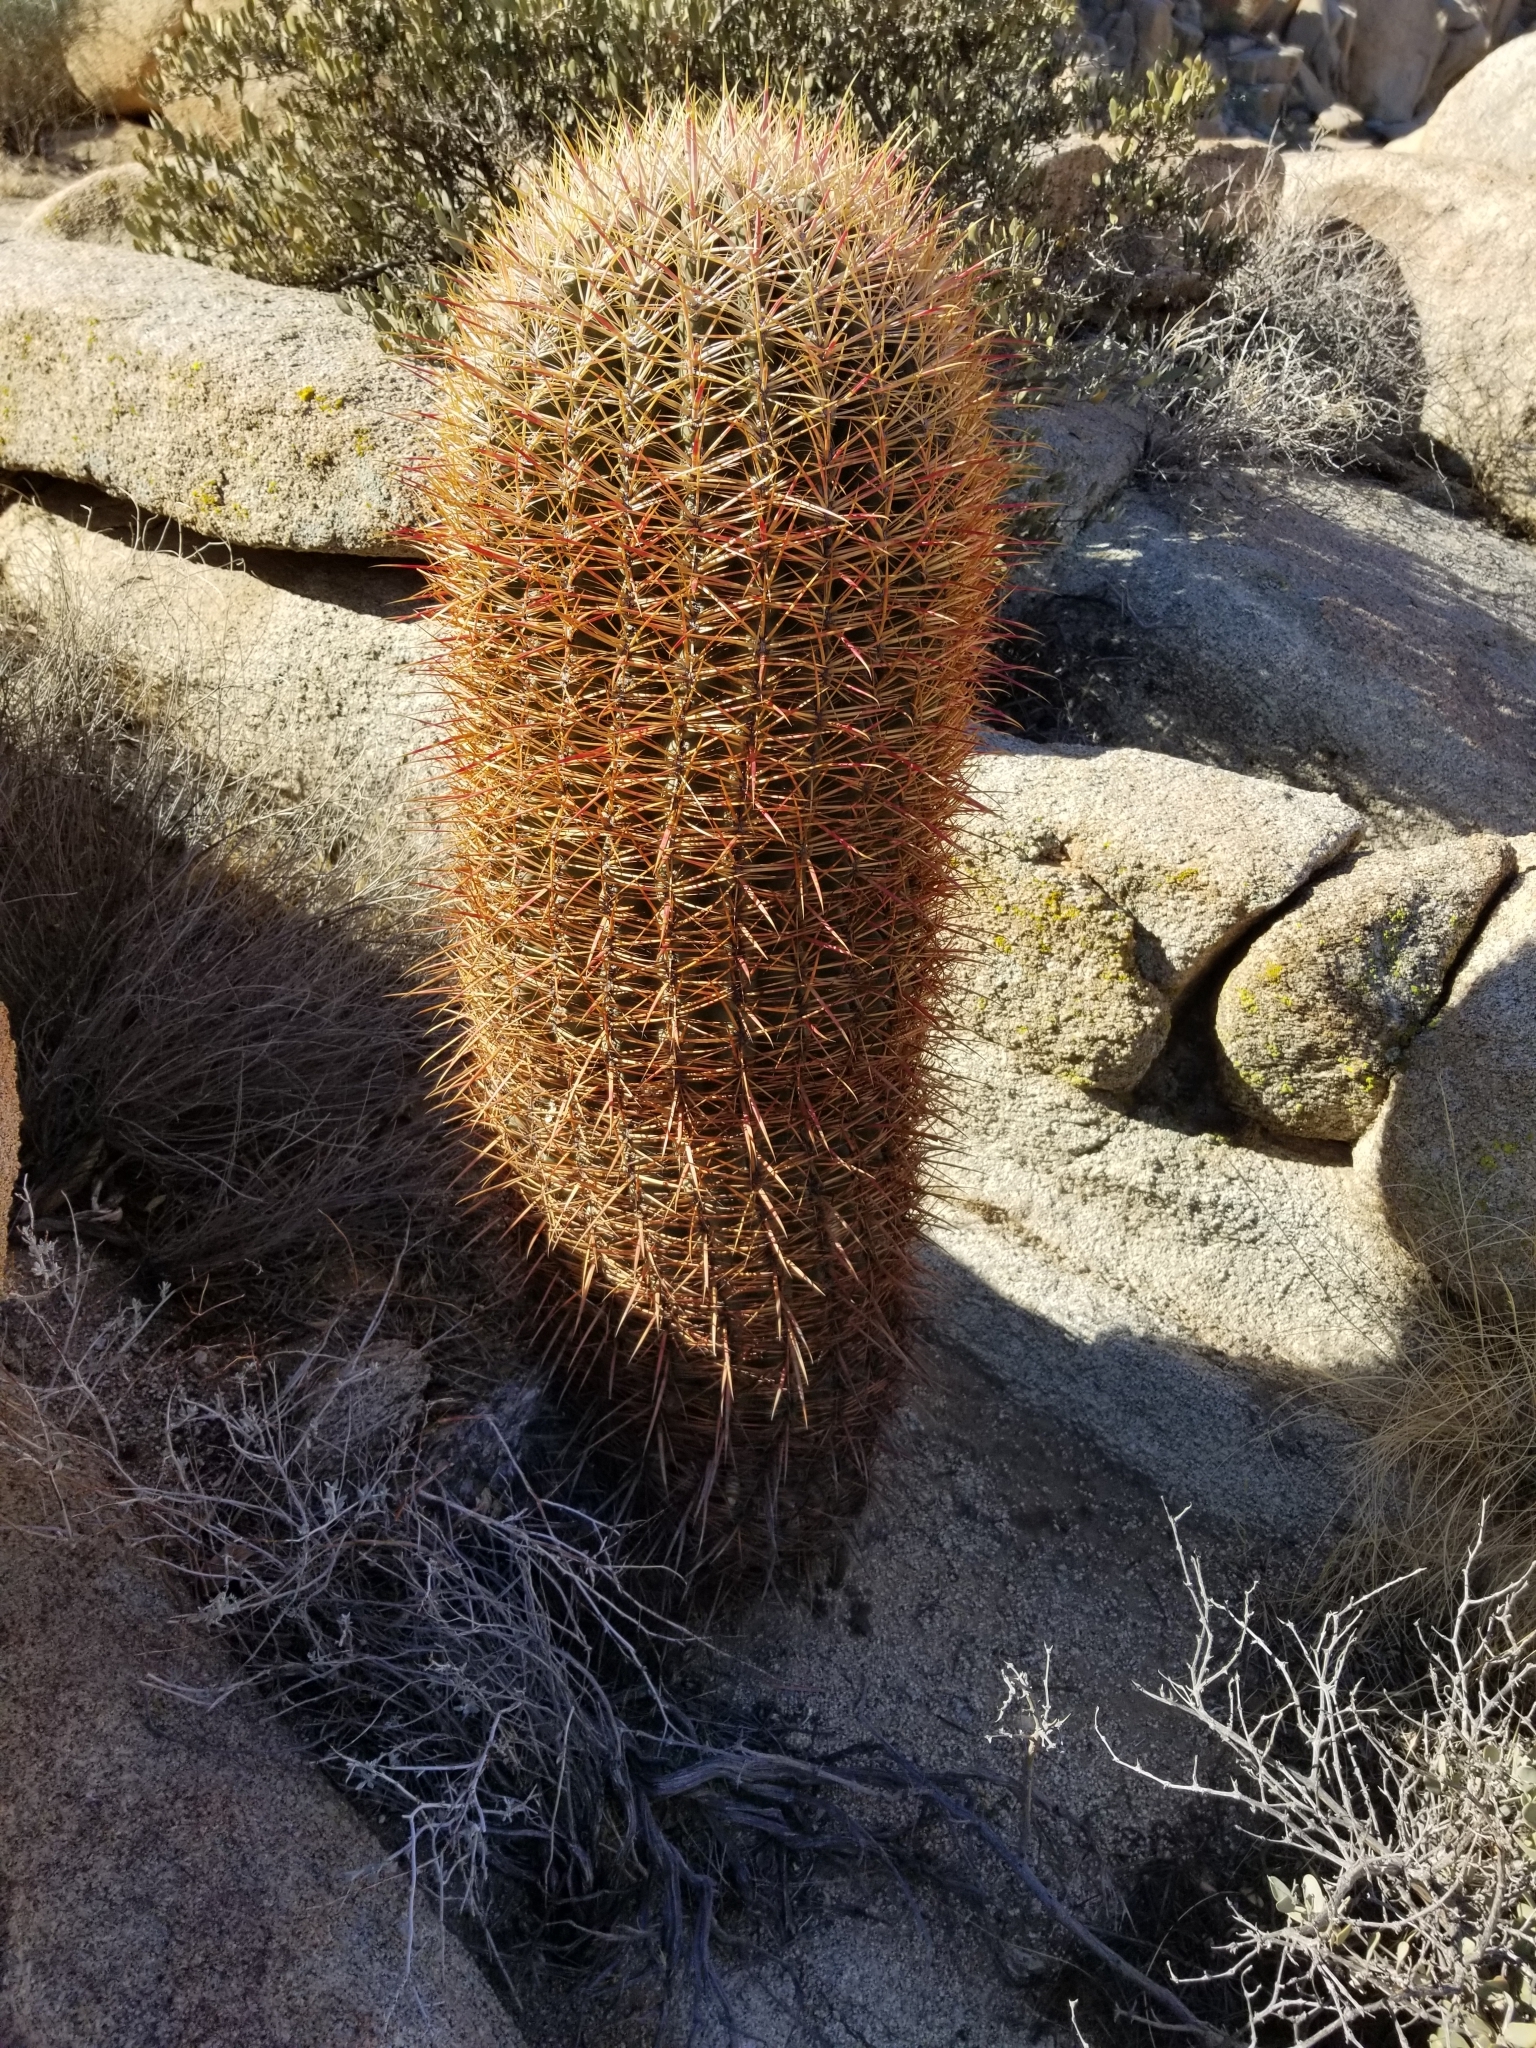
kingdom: Plantae
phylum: Tracheophyta
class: Magnoliopsida
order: Caryophyllales
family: Cactaceae
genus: Ferocactus
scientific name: Ferocactus cylindraceus
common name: California barrel cactus
